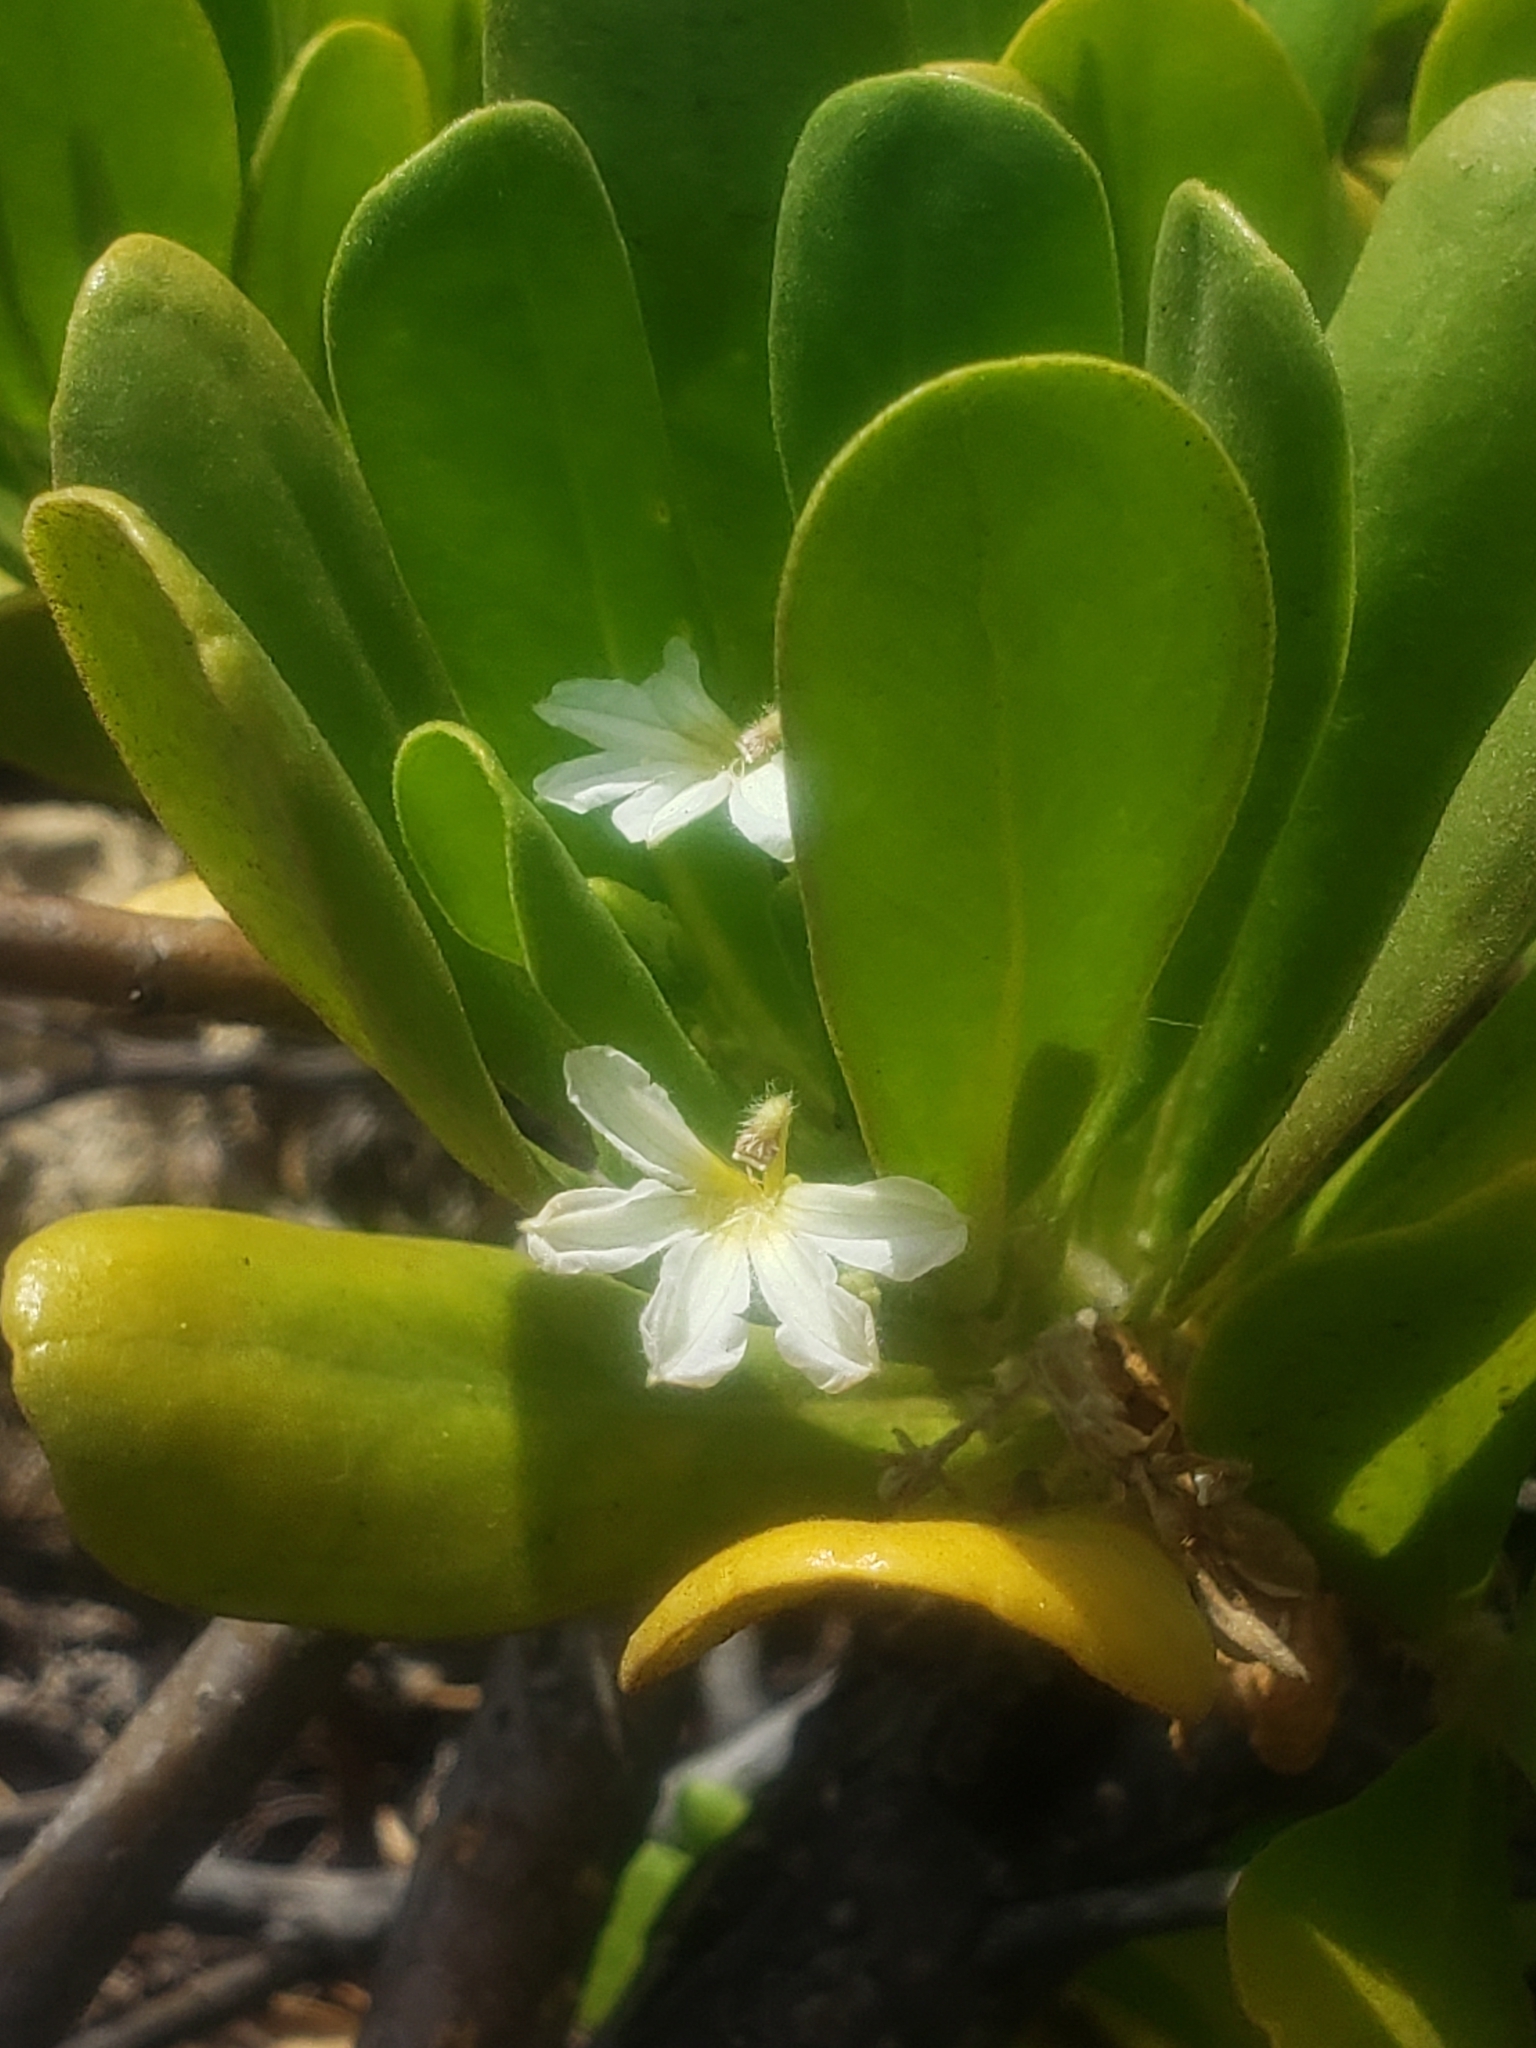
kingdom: Plantae
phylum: Tracheophyta
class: Magnoliopsida
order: Asterales
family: Goodeniaceae
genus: Scaevola
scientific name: Scaevola taccada
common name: Sea lettucetree
